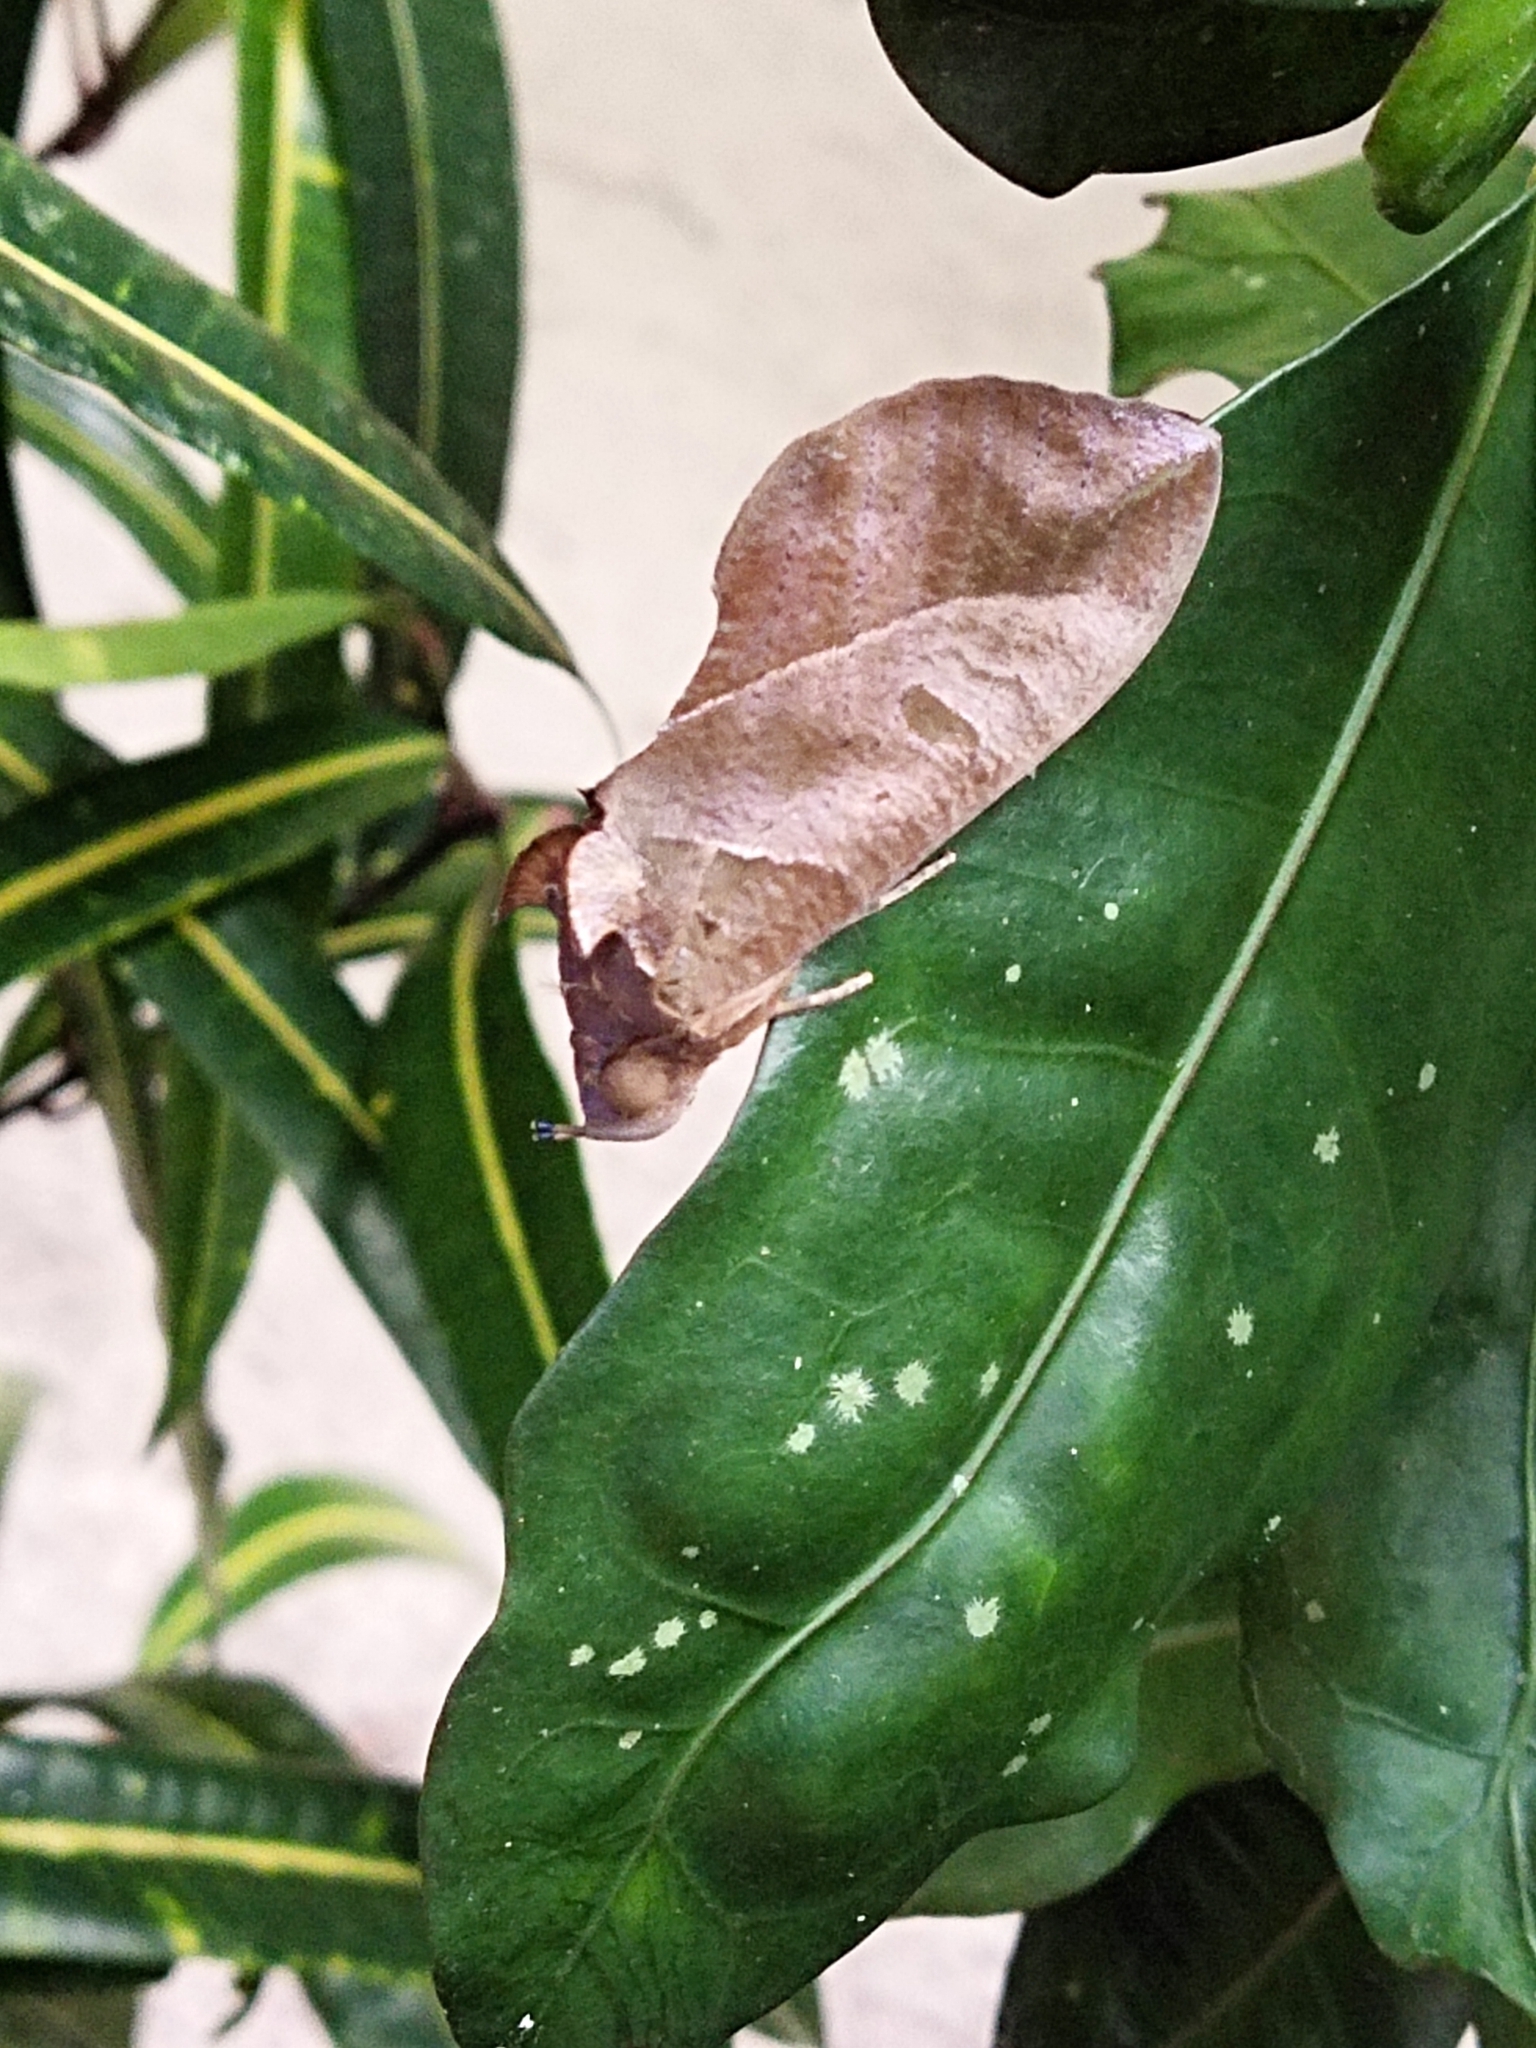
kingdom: Animalia
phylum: Arthropoda
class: Insecta
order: Lepidoptera
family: Erebidae
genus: Eudocima
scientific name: Eudocima phalonia
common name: Wasp
